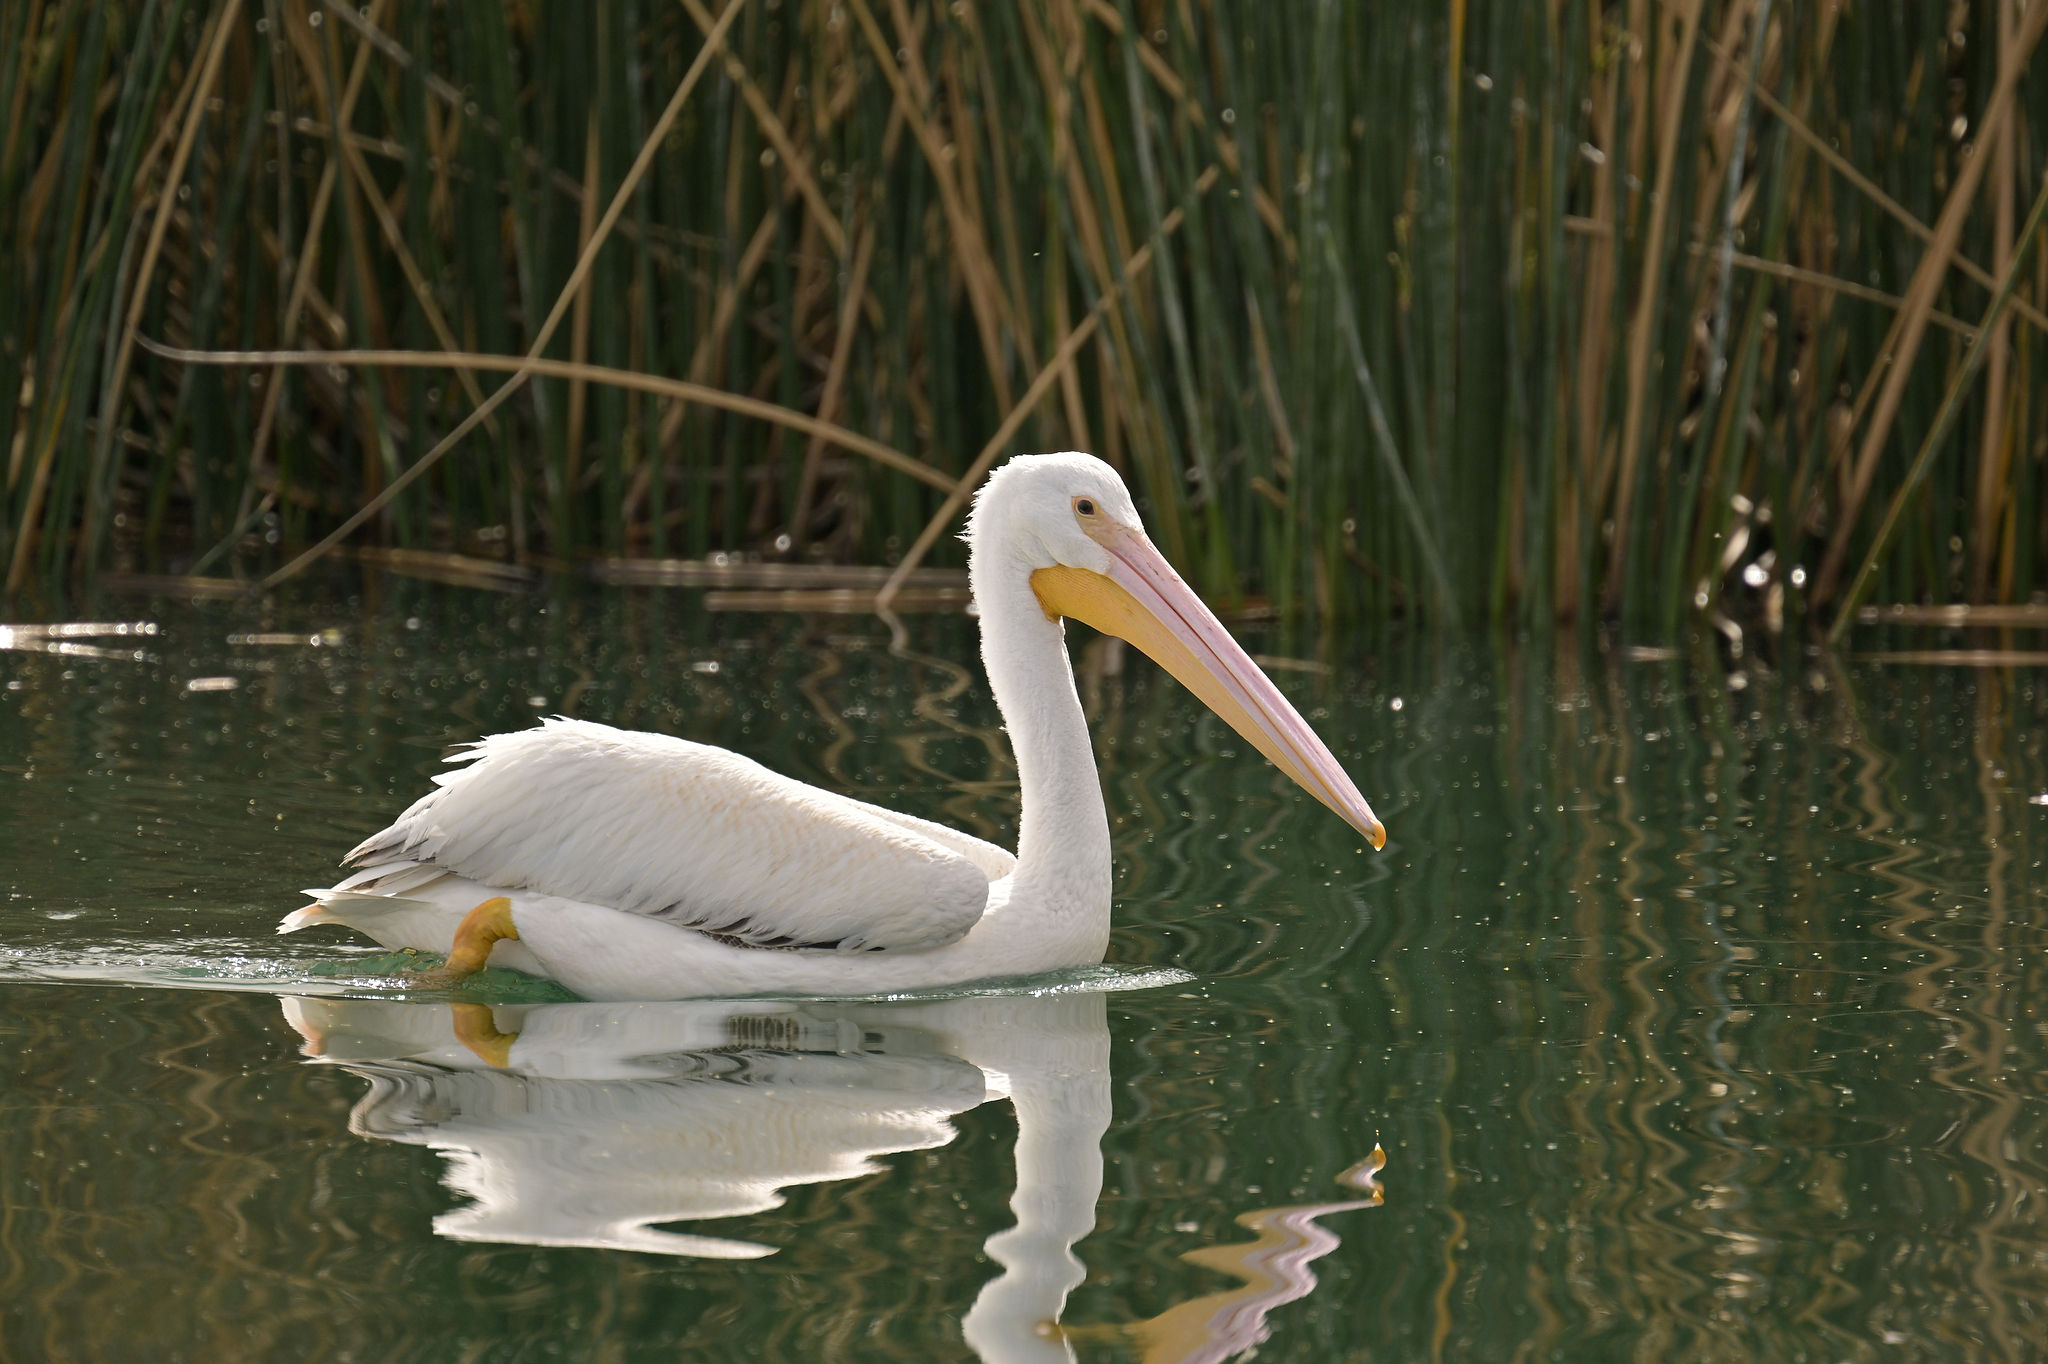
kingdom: Animalia
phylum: Chordata
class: Aves
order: Pelecaniformes
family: Pelecanidae
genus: Pelecanus
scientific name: Pelecanus erythrorhynchos
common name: American white pelican
